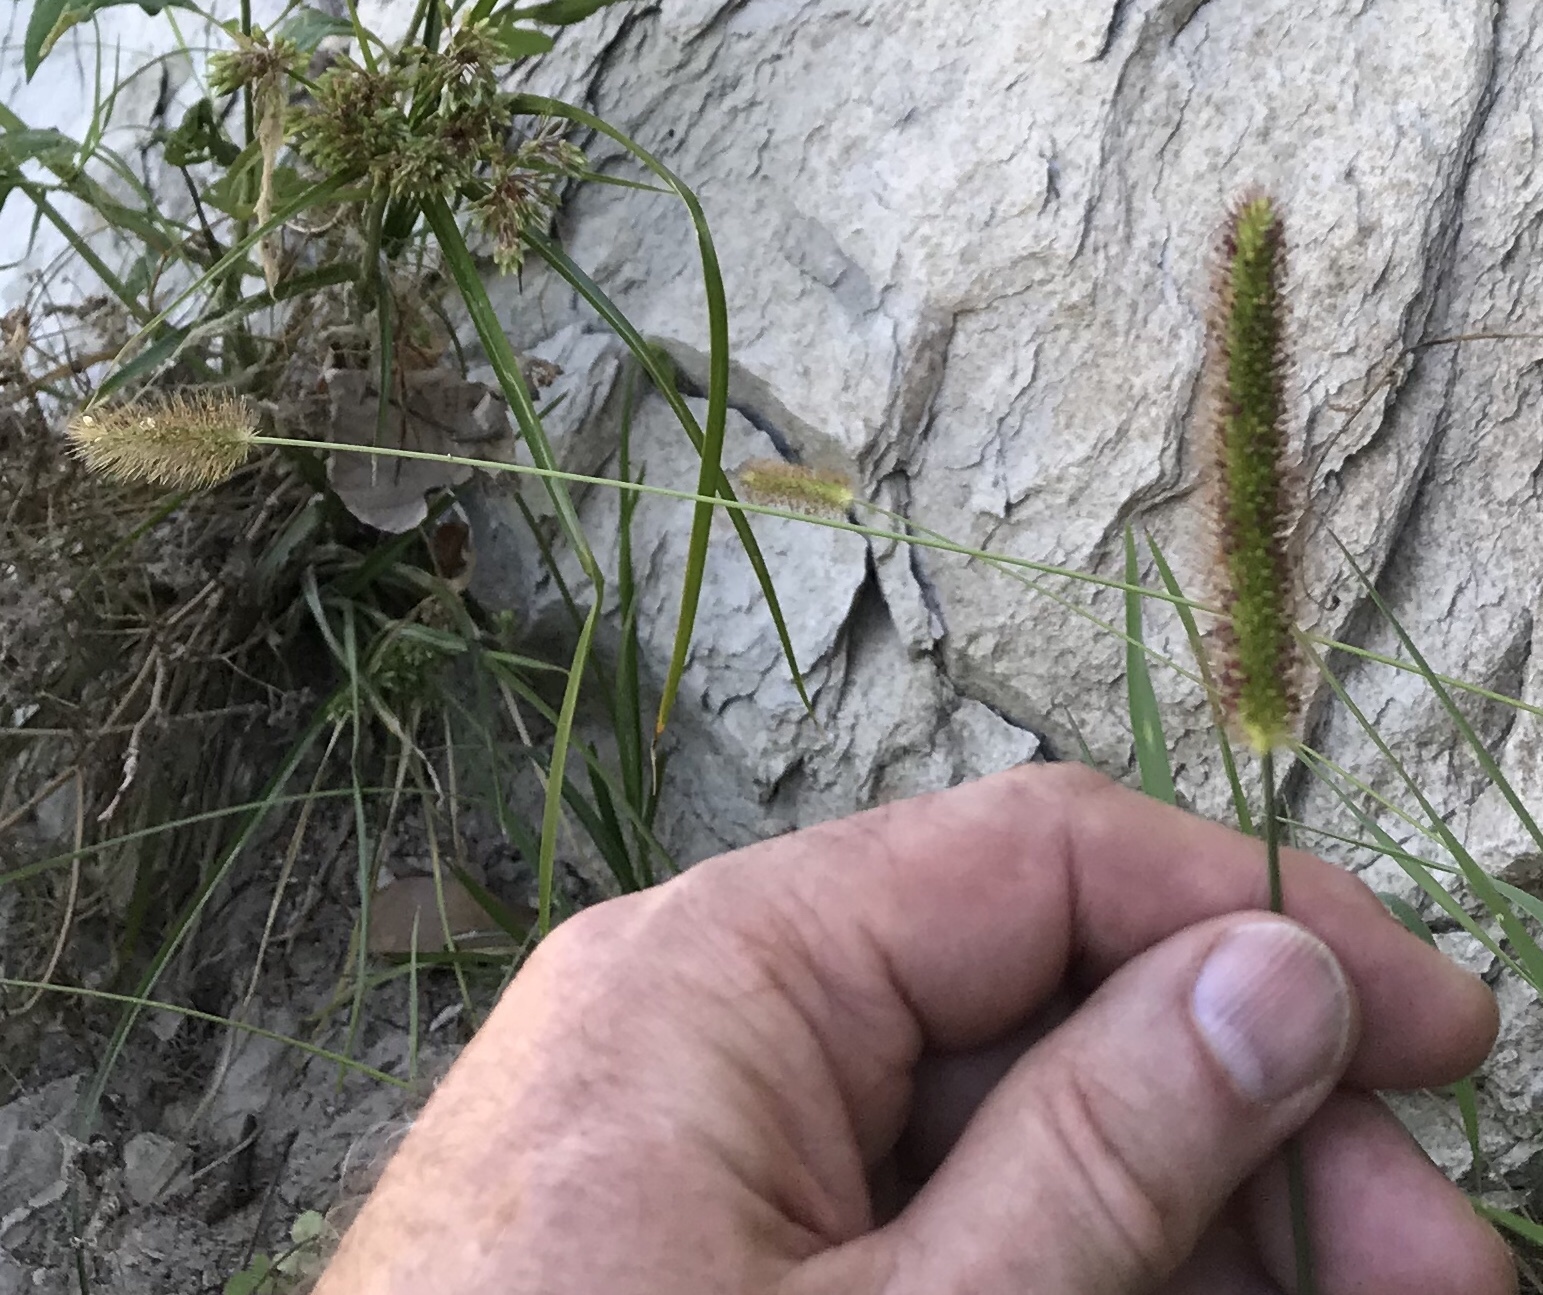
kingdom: Plantae
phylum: Tracheophyta
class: Liliopsida
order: Poales
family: Poaceae
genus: Setaria
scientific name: Setaria parviflora
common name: Knotroot bristle-grass
